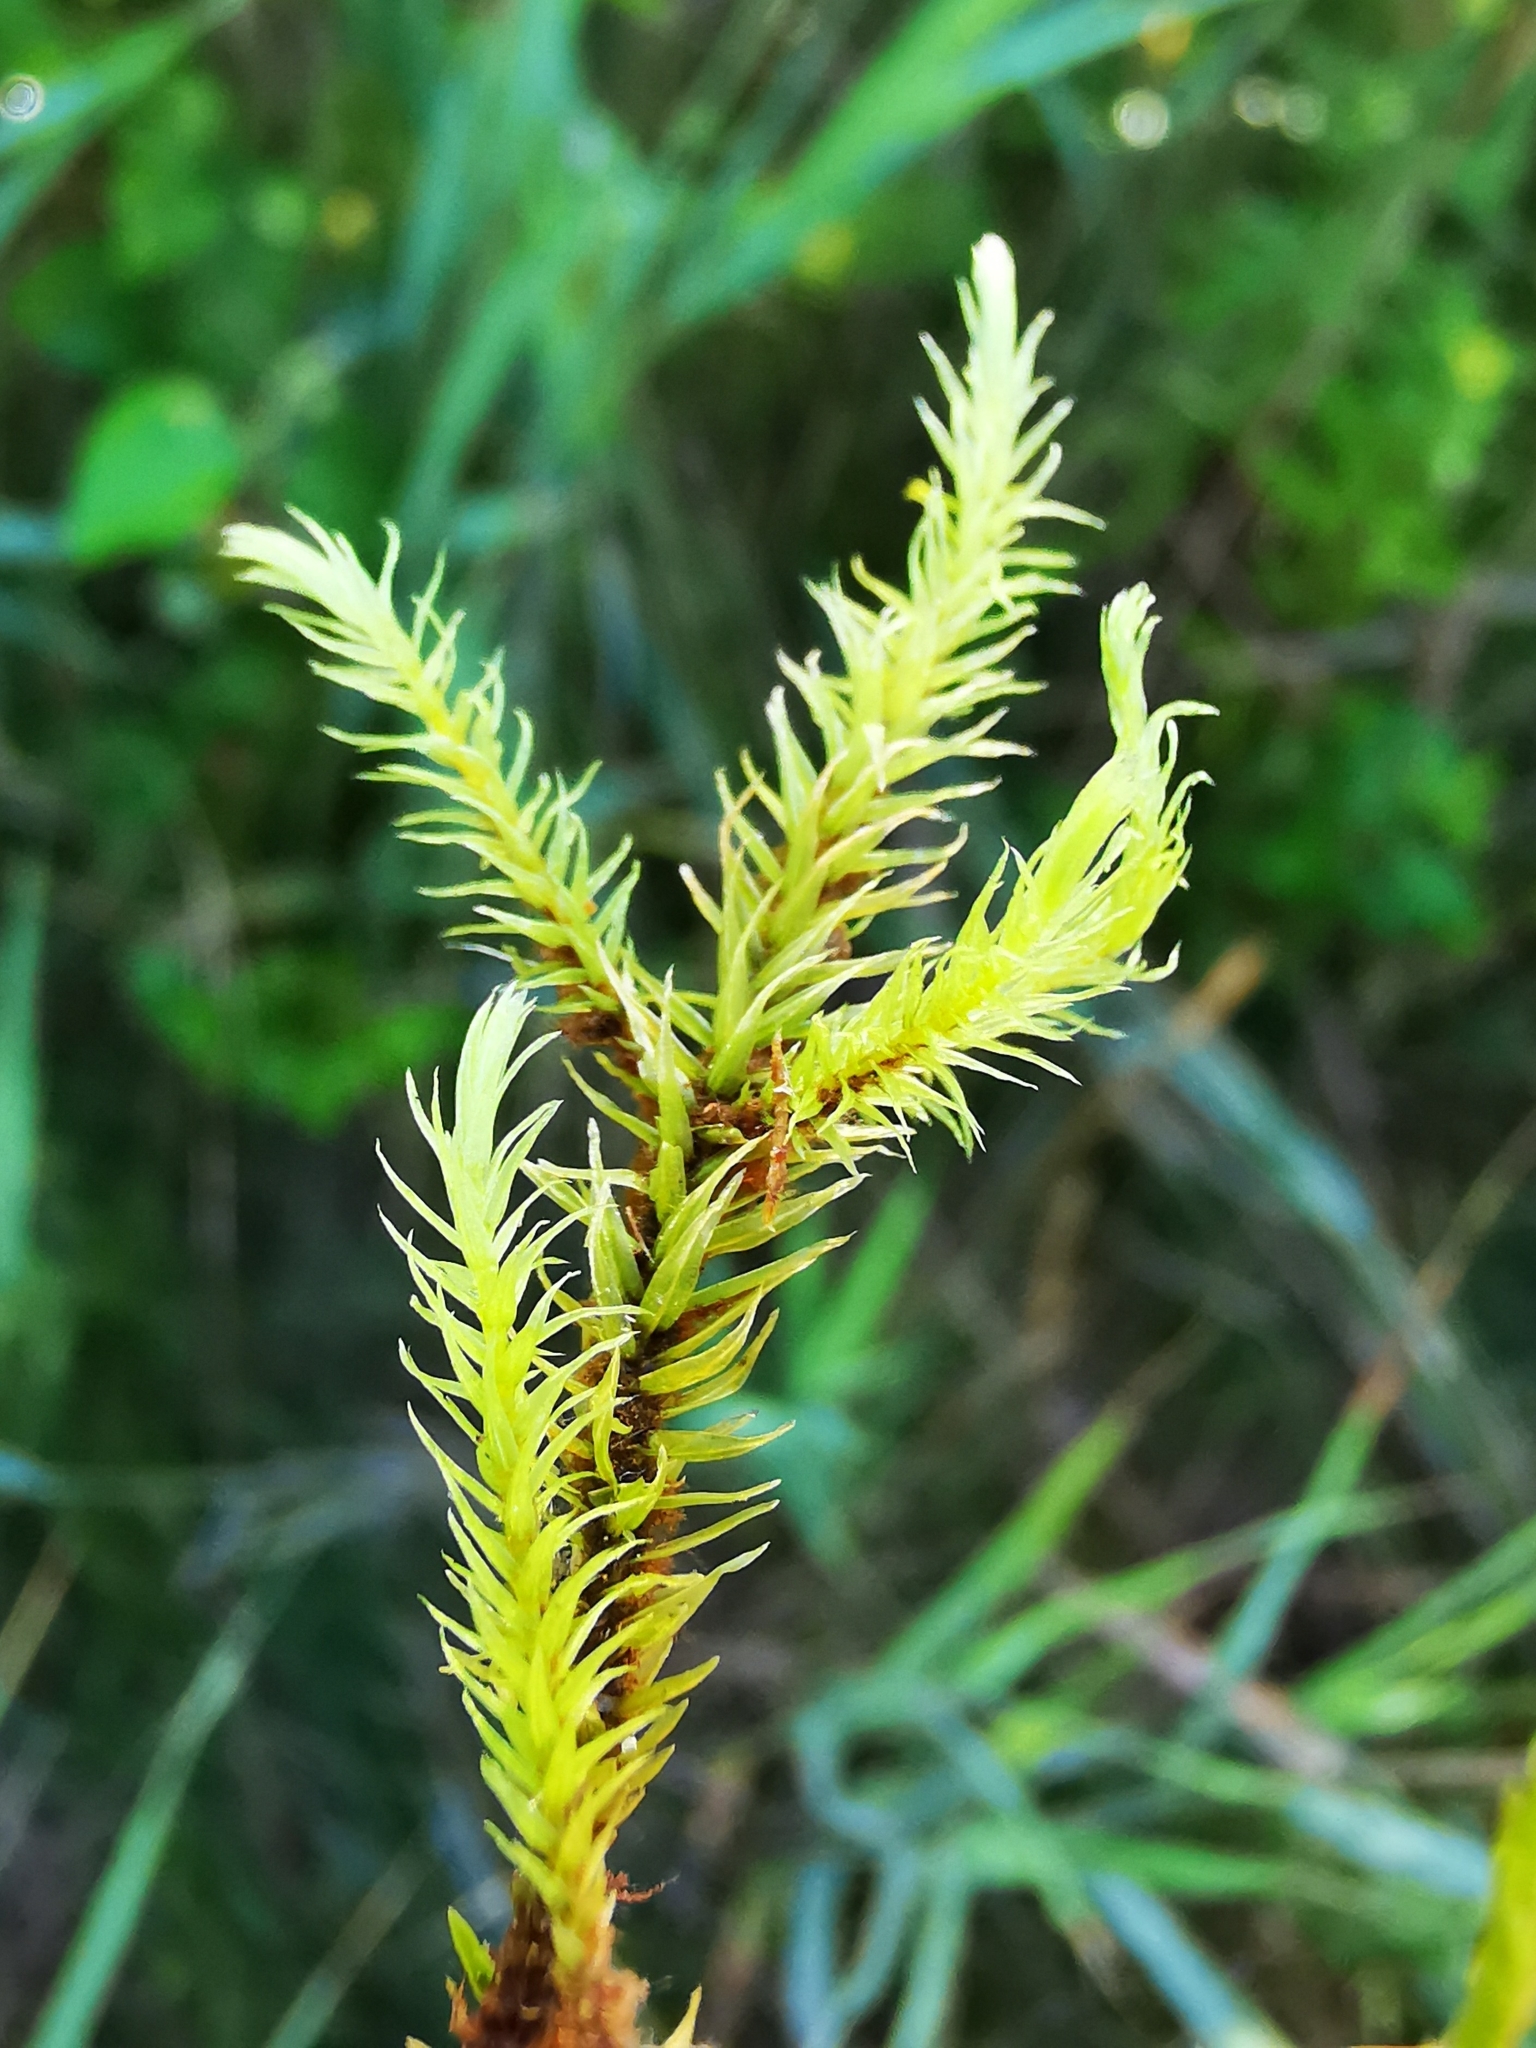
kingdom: Plantae
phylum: Bryophyta
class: Bryopsida
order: Aulacomniales
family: Aulacomniaceae
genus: Aulacomnium
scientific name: Aulacomnium palustre
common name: Bog groove-moss
